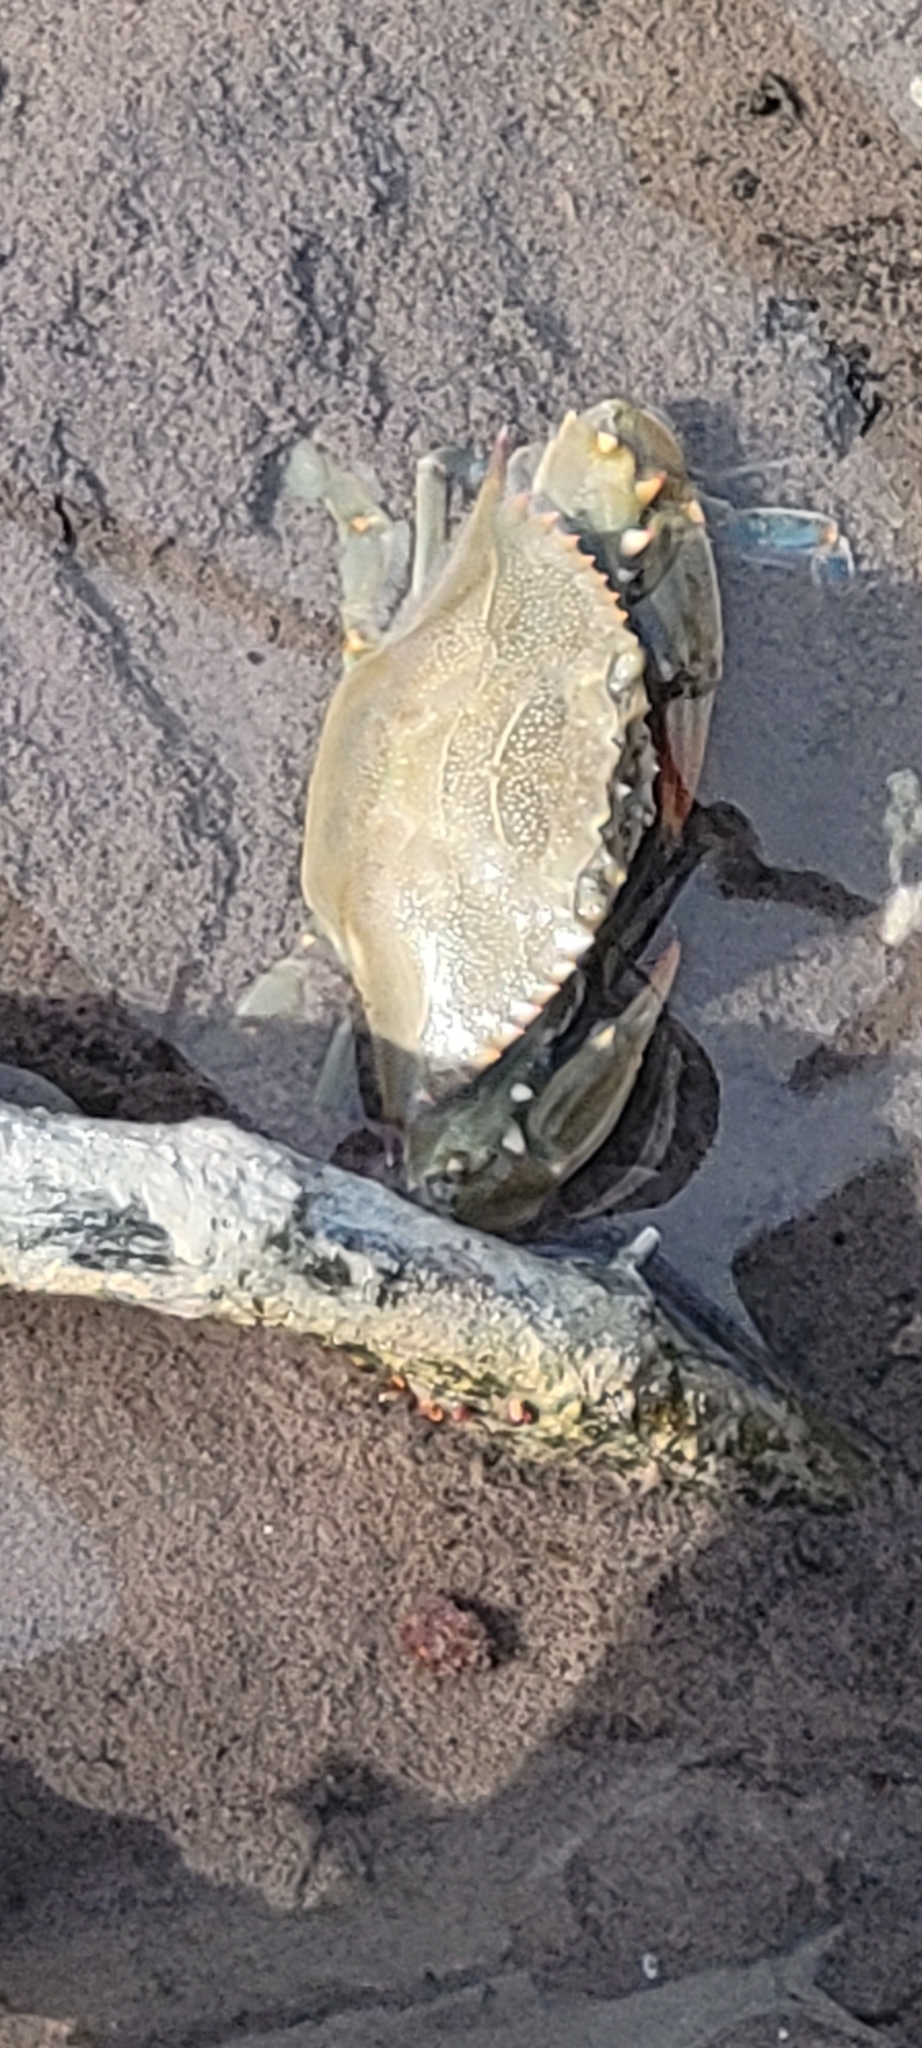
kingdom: Animalia
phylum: Arthropoda
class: Malacostraca
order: Decapoda
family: Portunidae
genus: Callinectes
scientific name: Callinectes sapidus
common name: Blue crab
